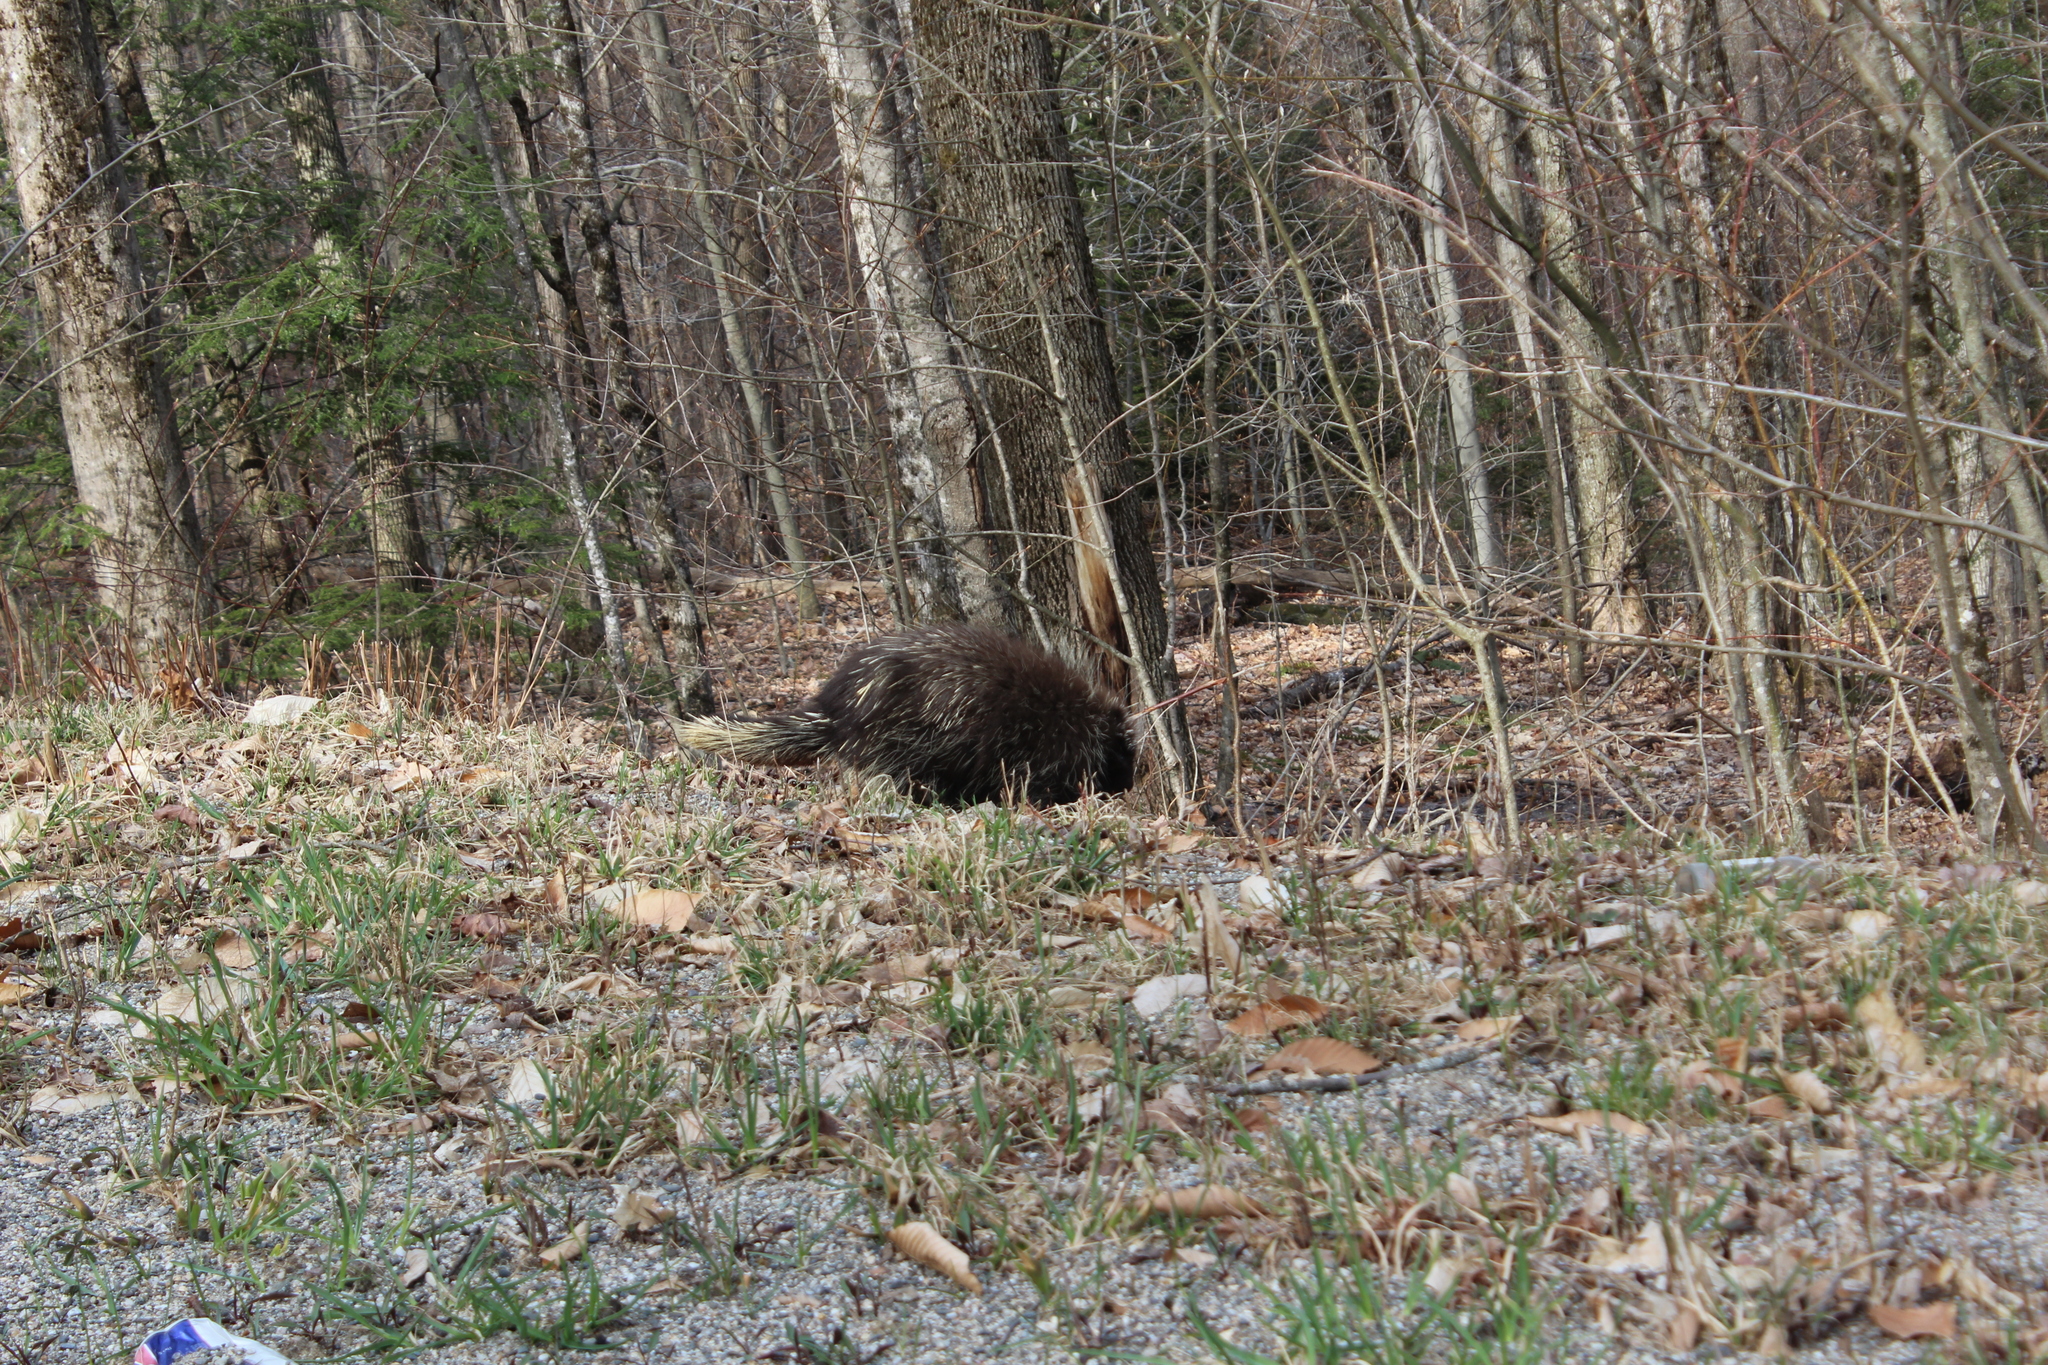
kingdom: Animalia
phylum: Chordata
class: Mammalia
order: Rodentia
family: Erethizontidae
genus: Erethizon
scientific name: Erethizon dorsatus
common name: North american porcupine
